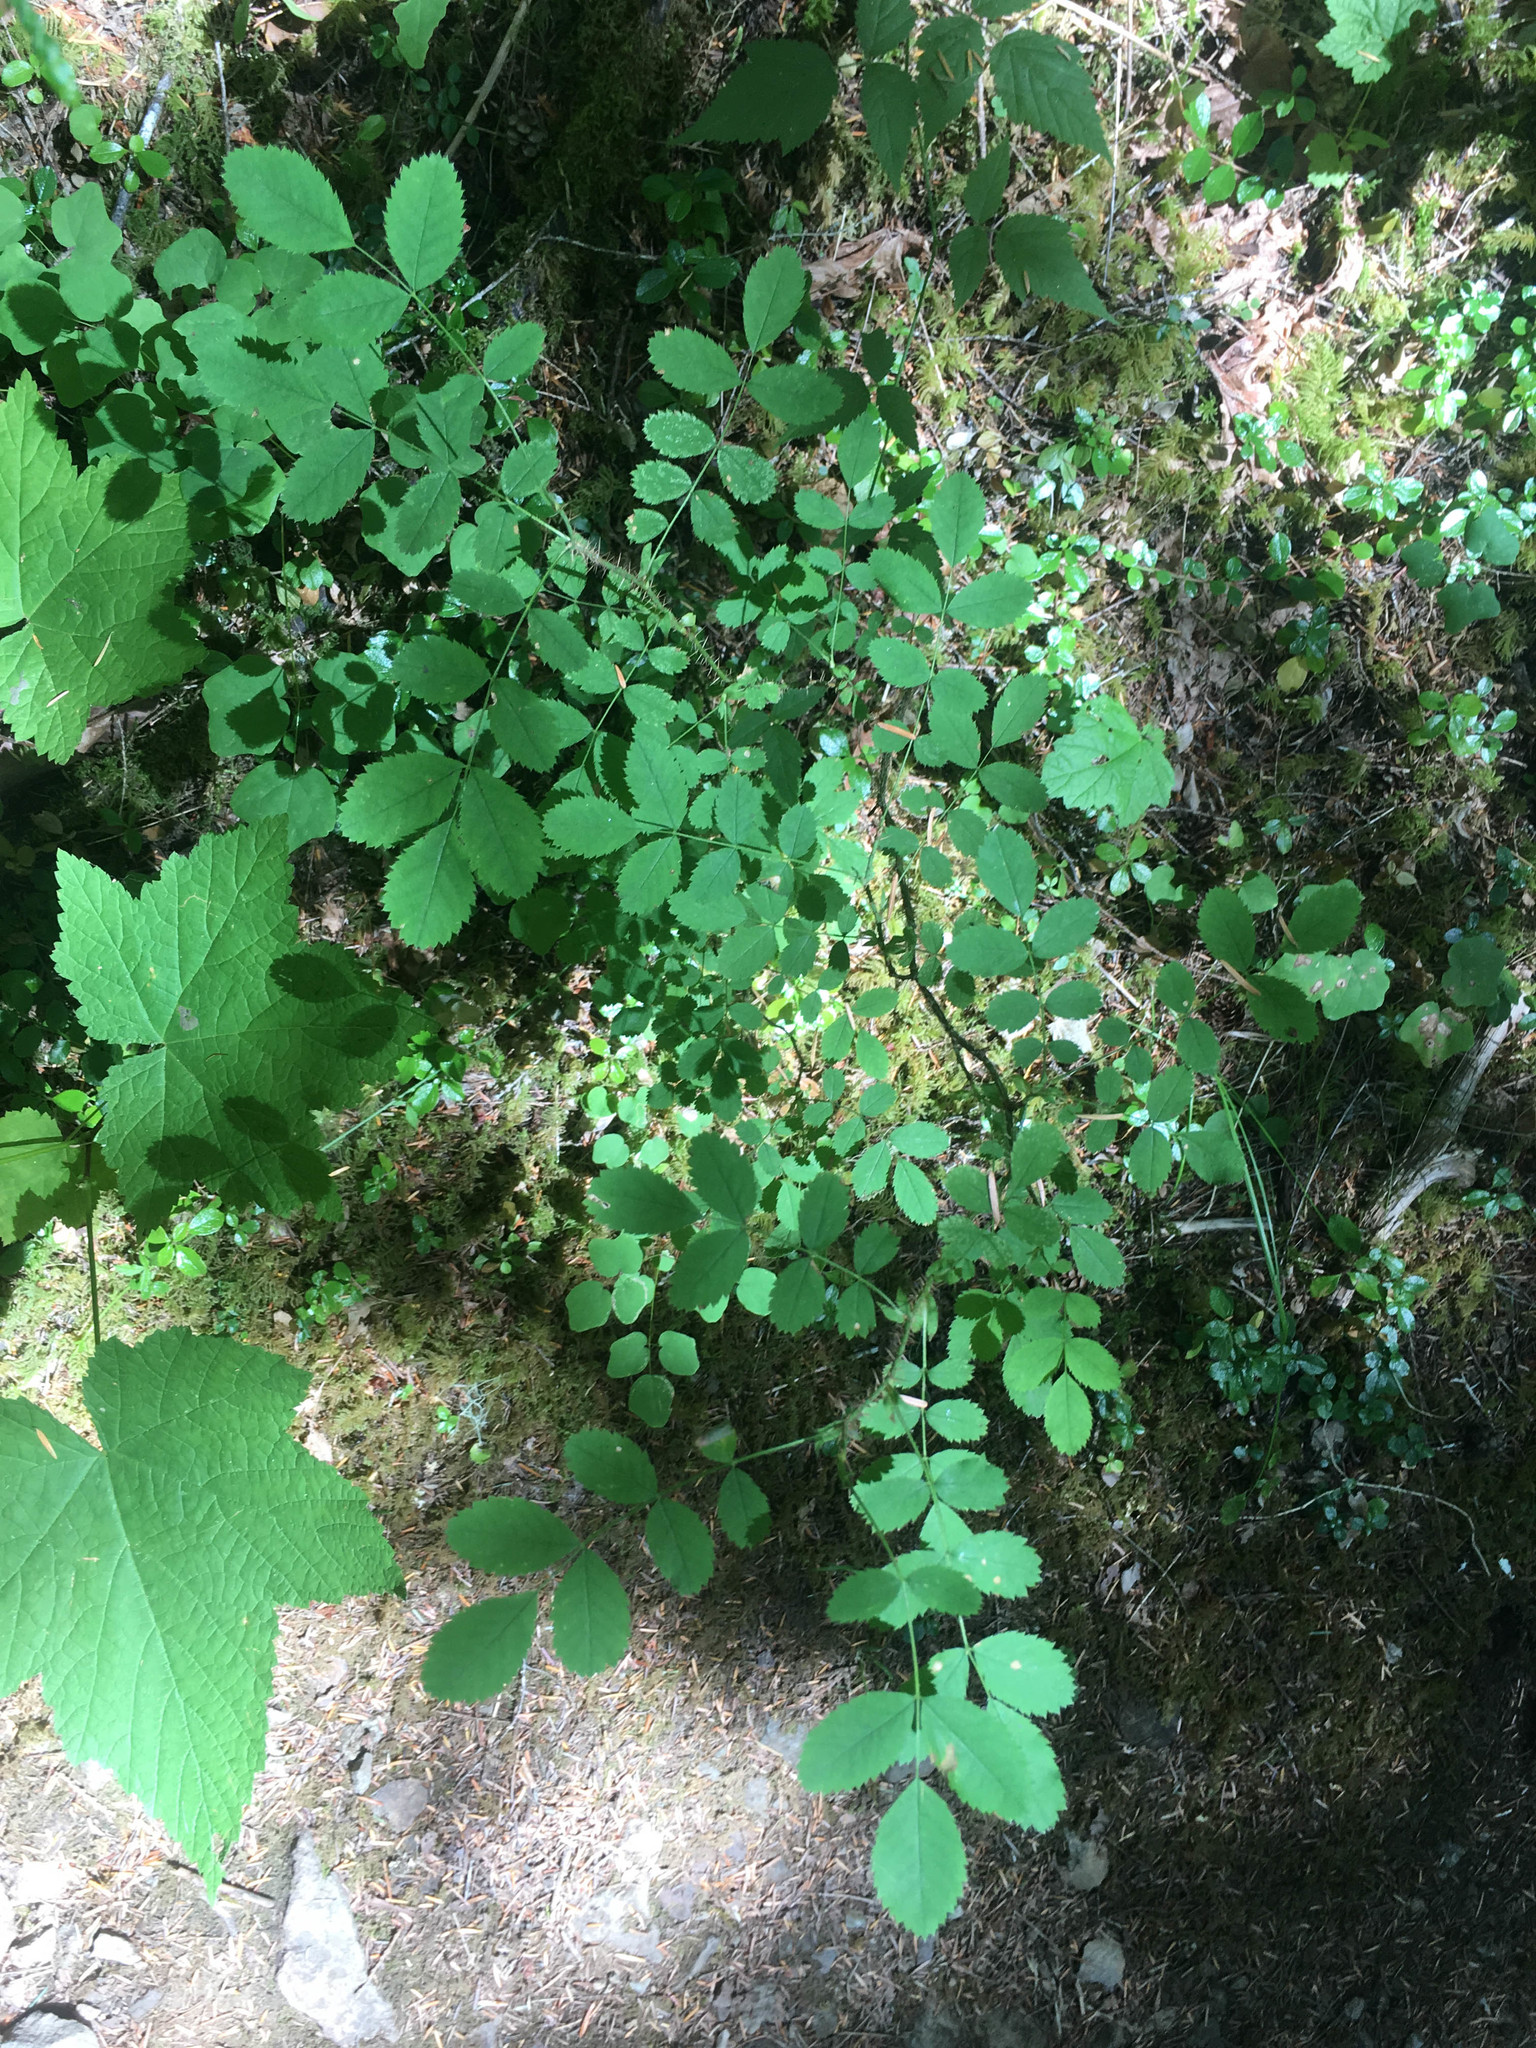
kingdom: Plantae
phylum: Tracheophyta
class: Magnoliopsida
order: Rosales
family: Rosaceae
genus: Rosa
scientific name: Rosa gymnocarpa
